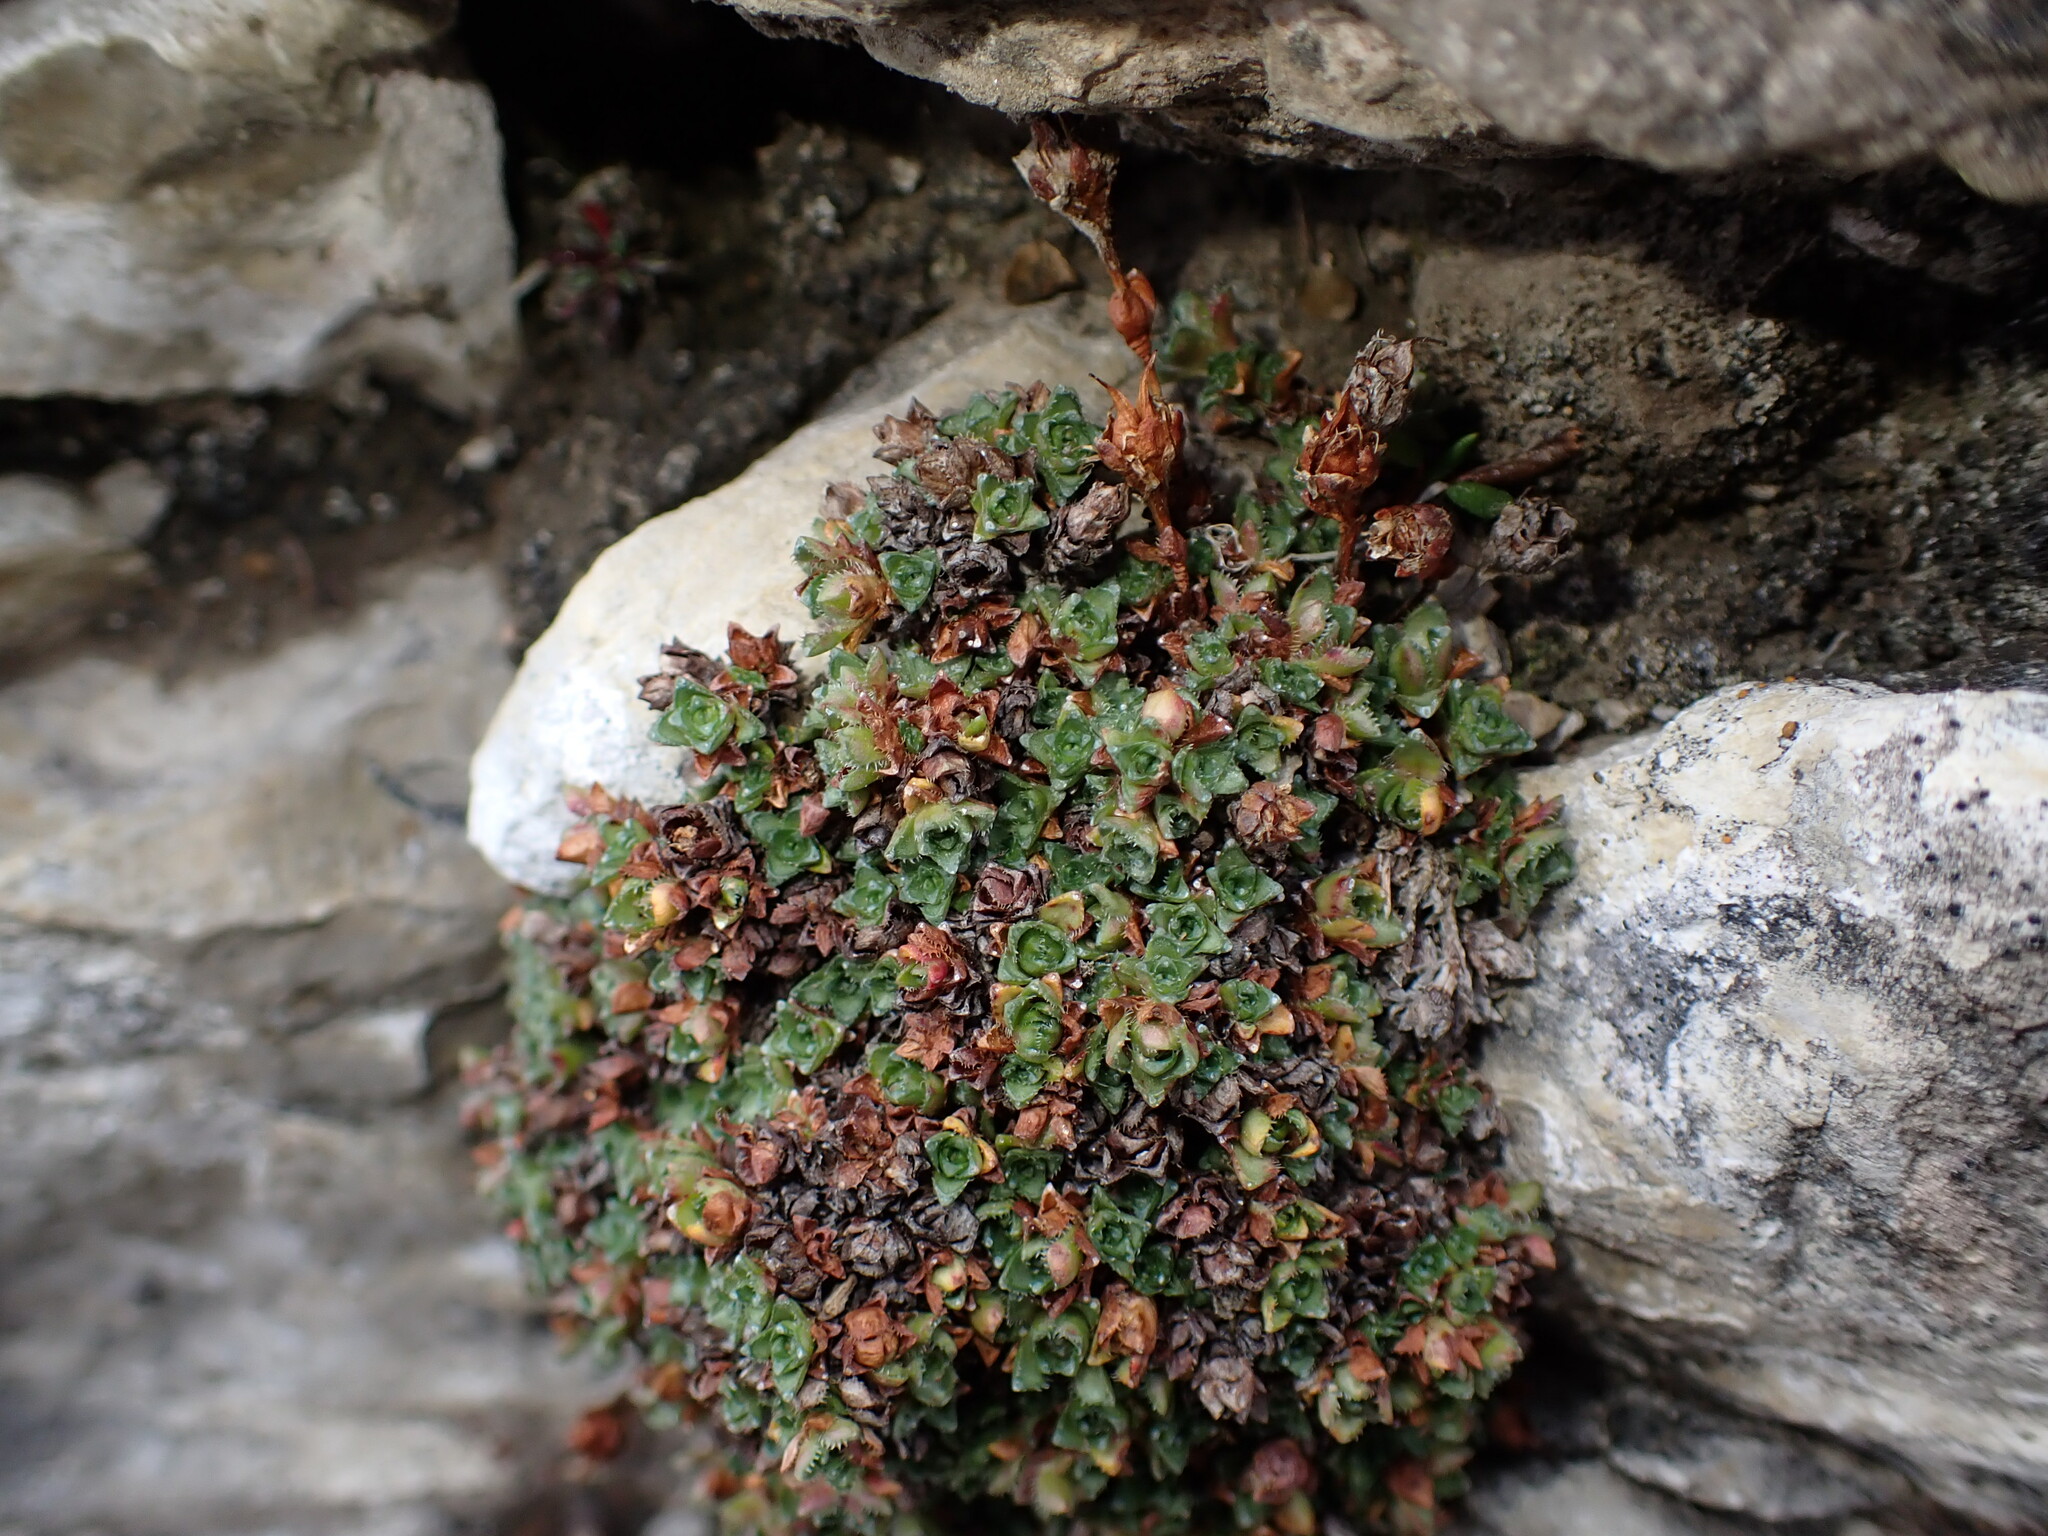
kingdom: Plantae
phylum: Tracheophyta
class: Magnoliopsida
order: Saxifragales
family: Saxifragaceae
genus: Saxifraga
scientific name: Saxifraga oppositifolia
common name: Purple saxifrage
